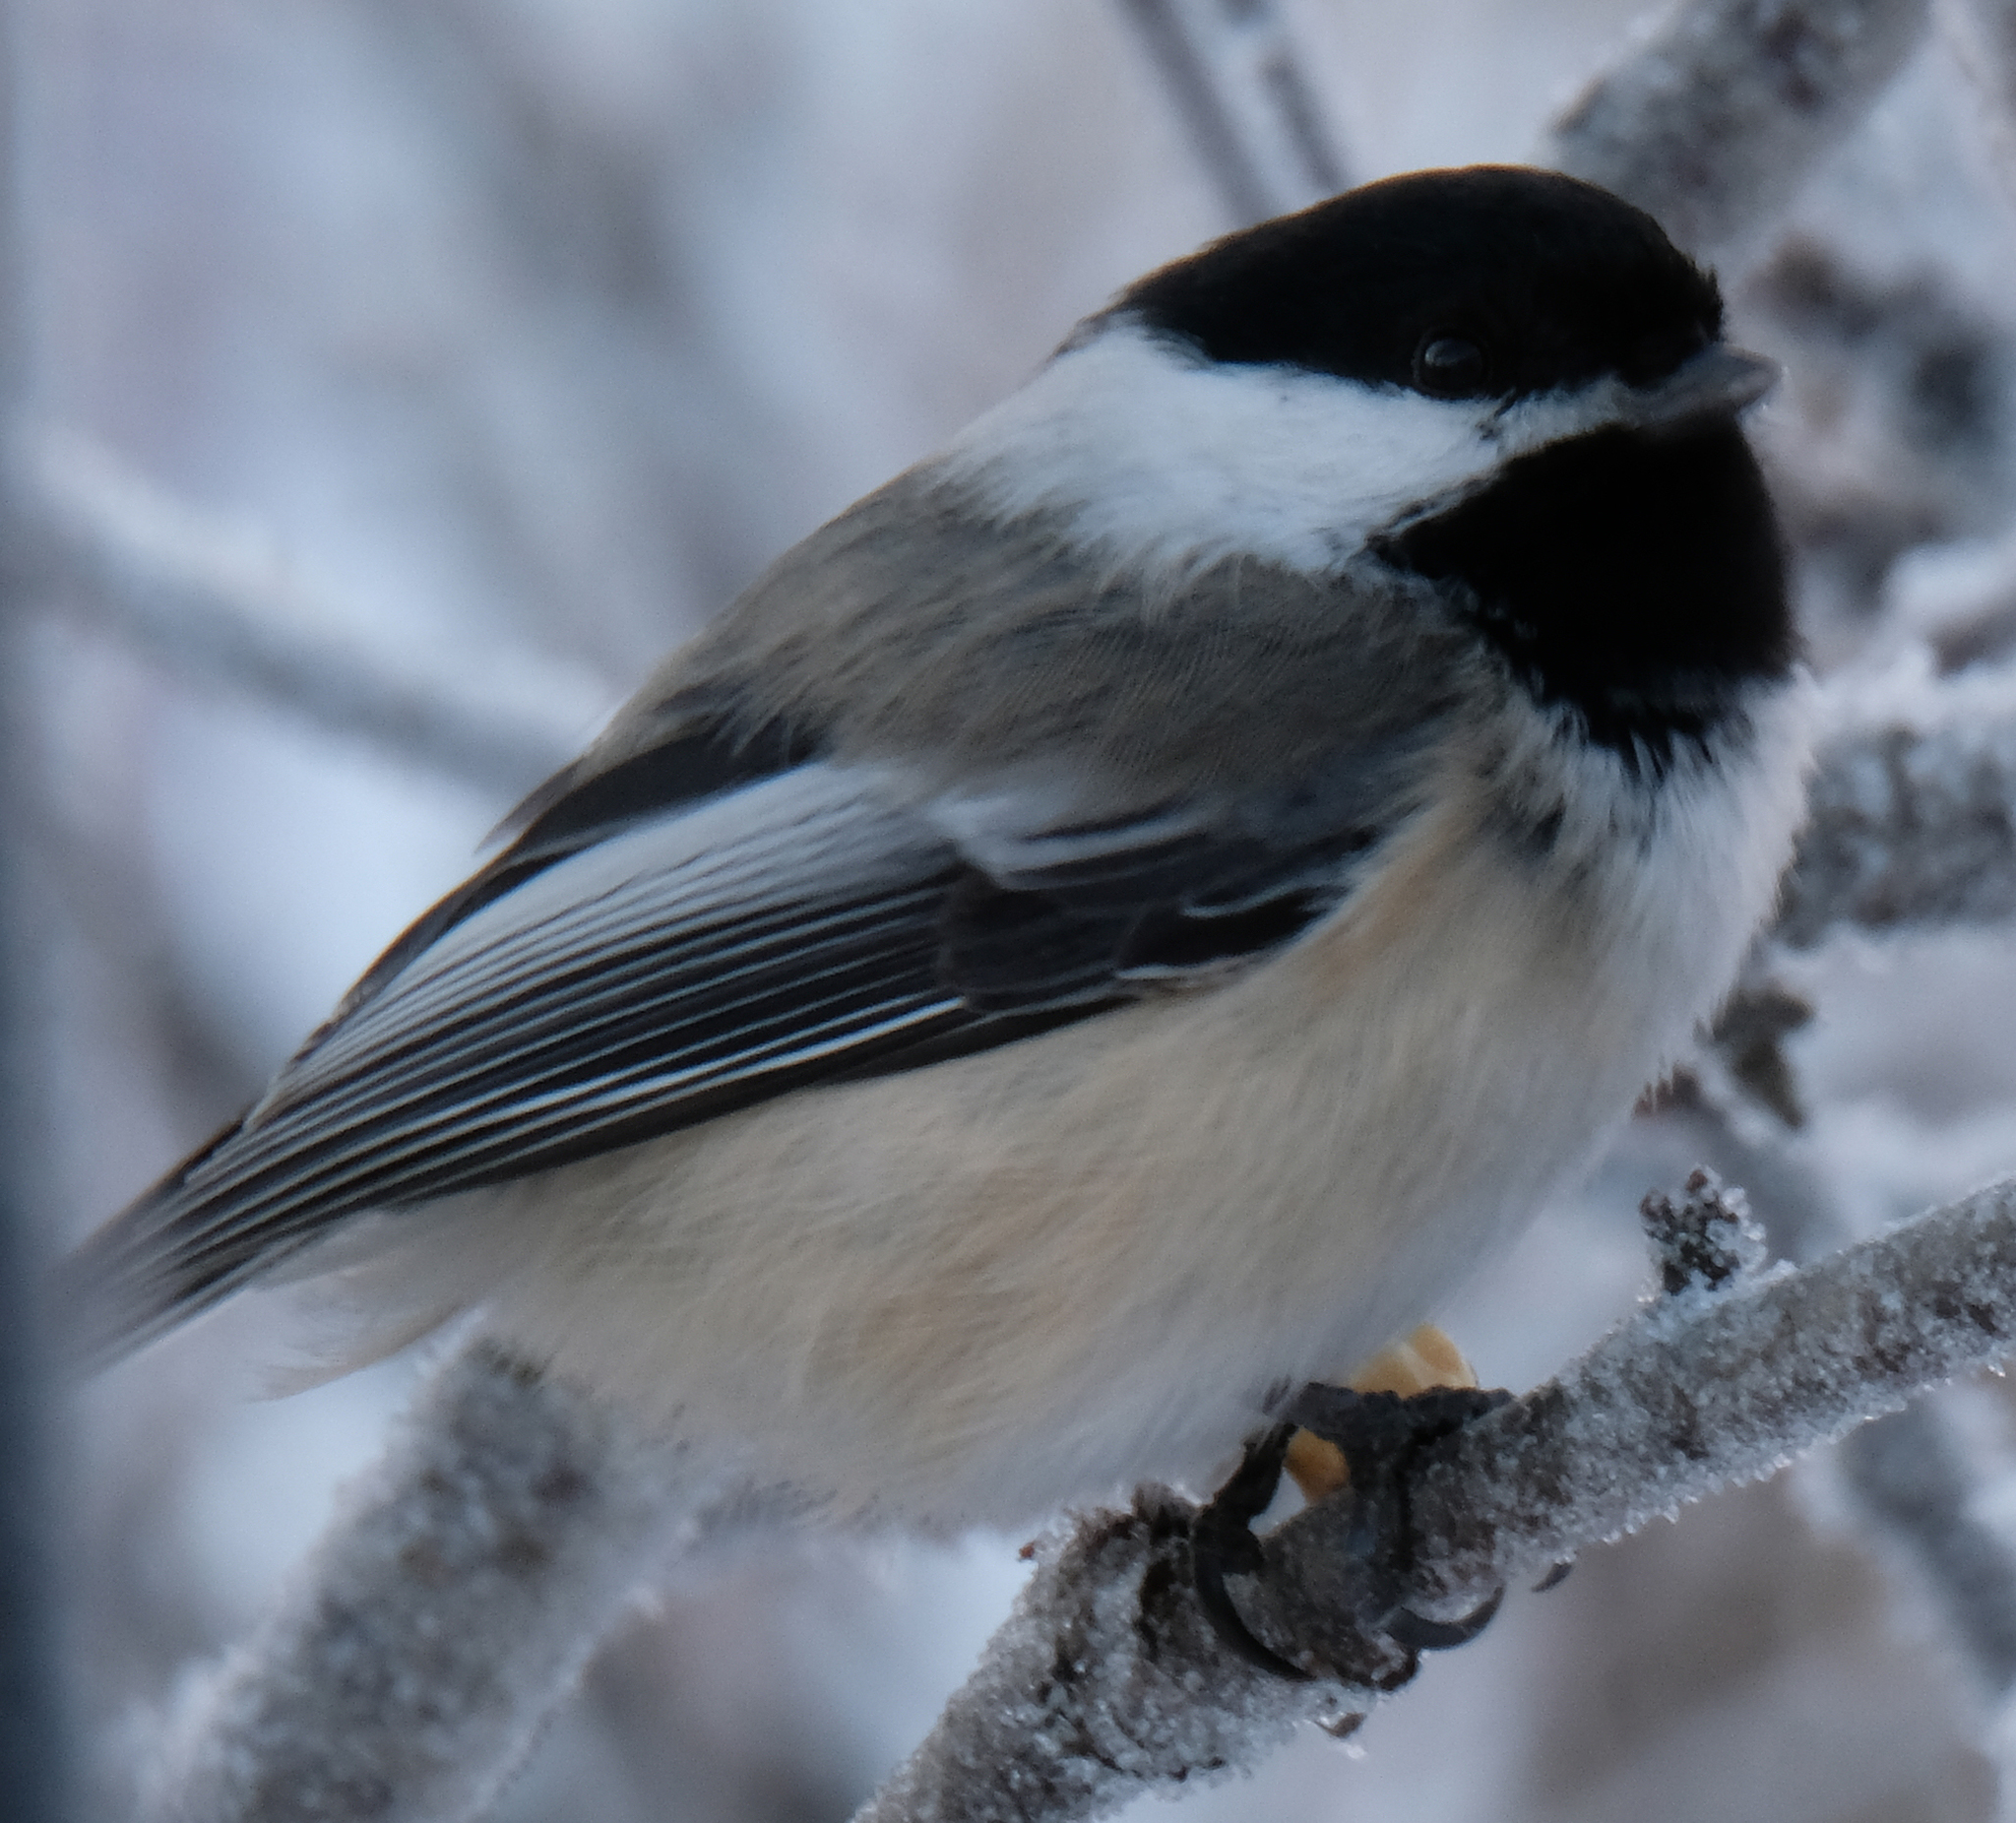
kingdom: Animalia
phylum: Chordata
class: Aves
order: Passeriformes
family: Paridae
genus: Poecile
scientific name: Poecile atricapillus
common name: Black-capped chickadee
